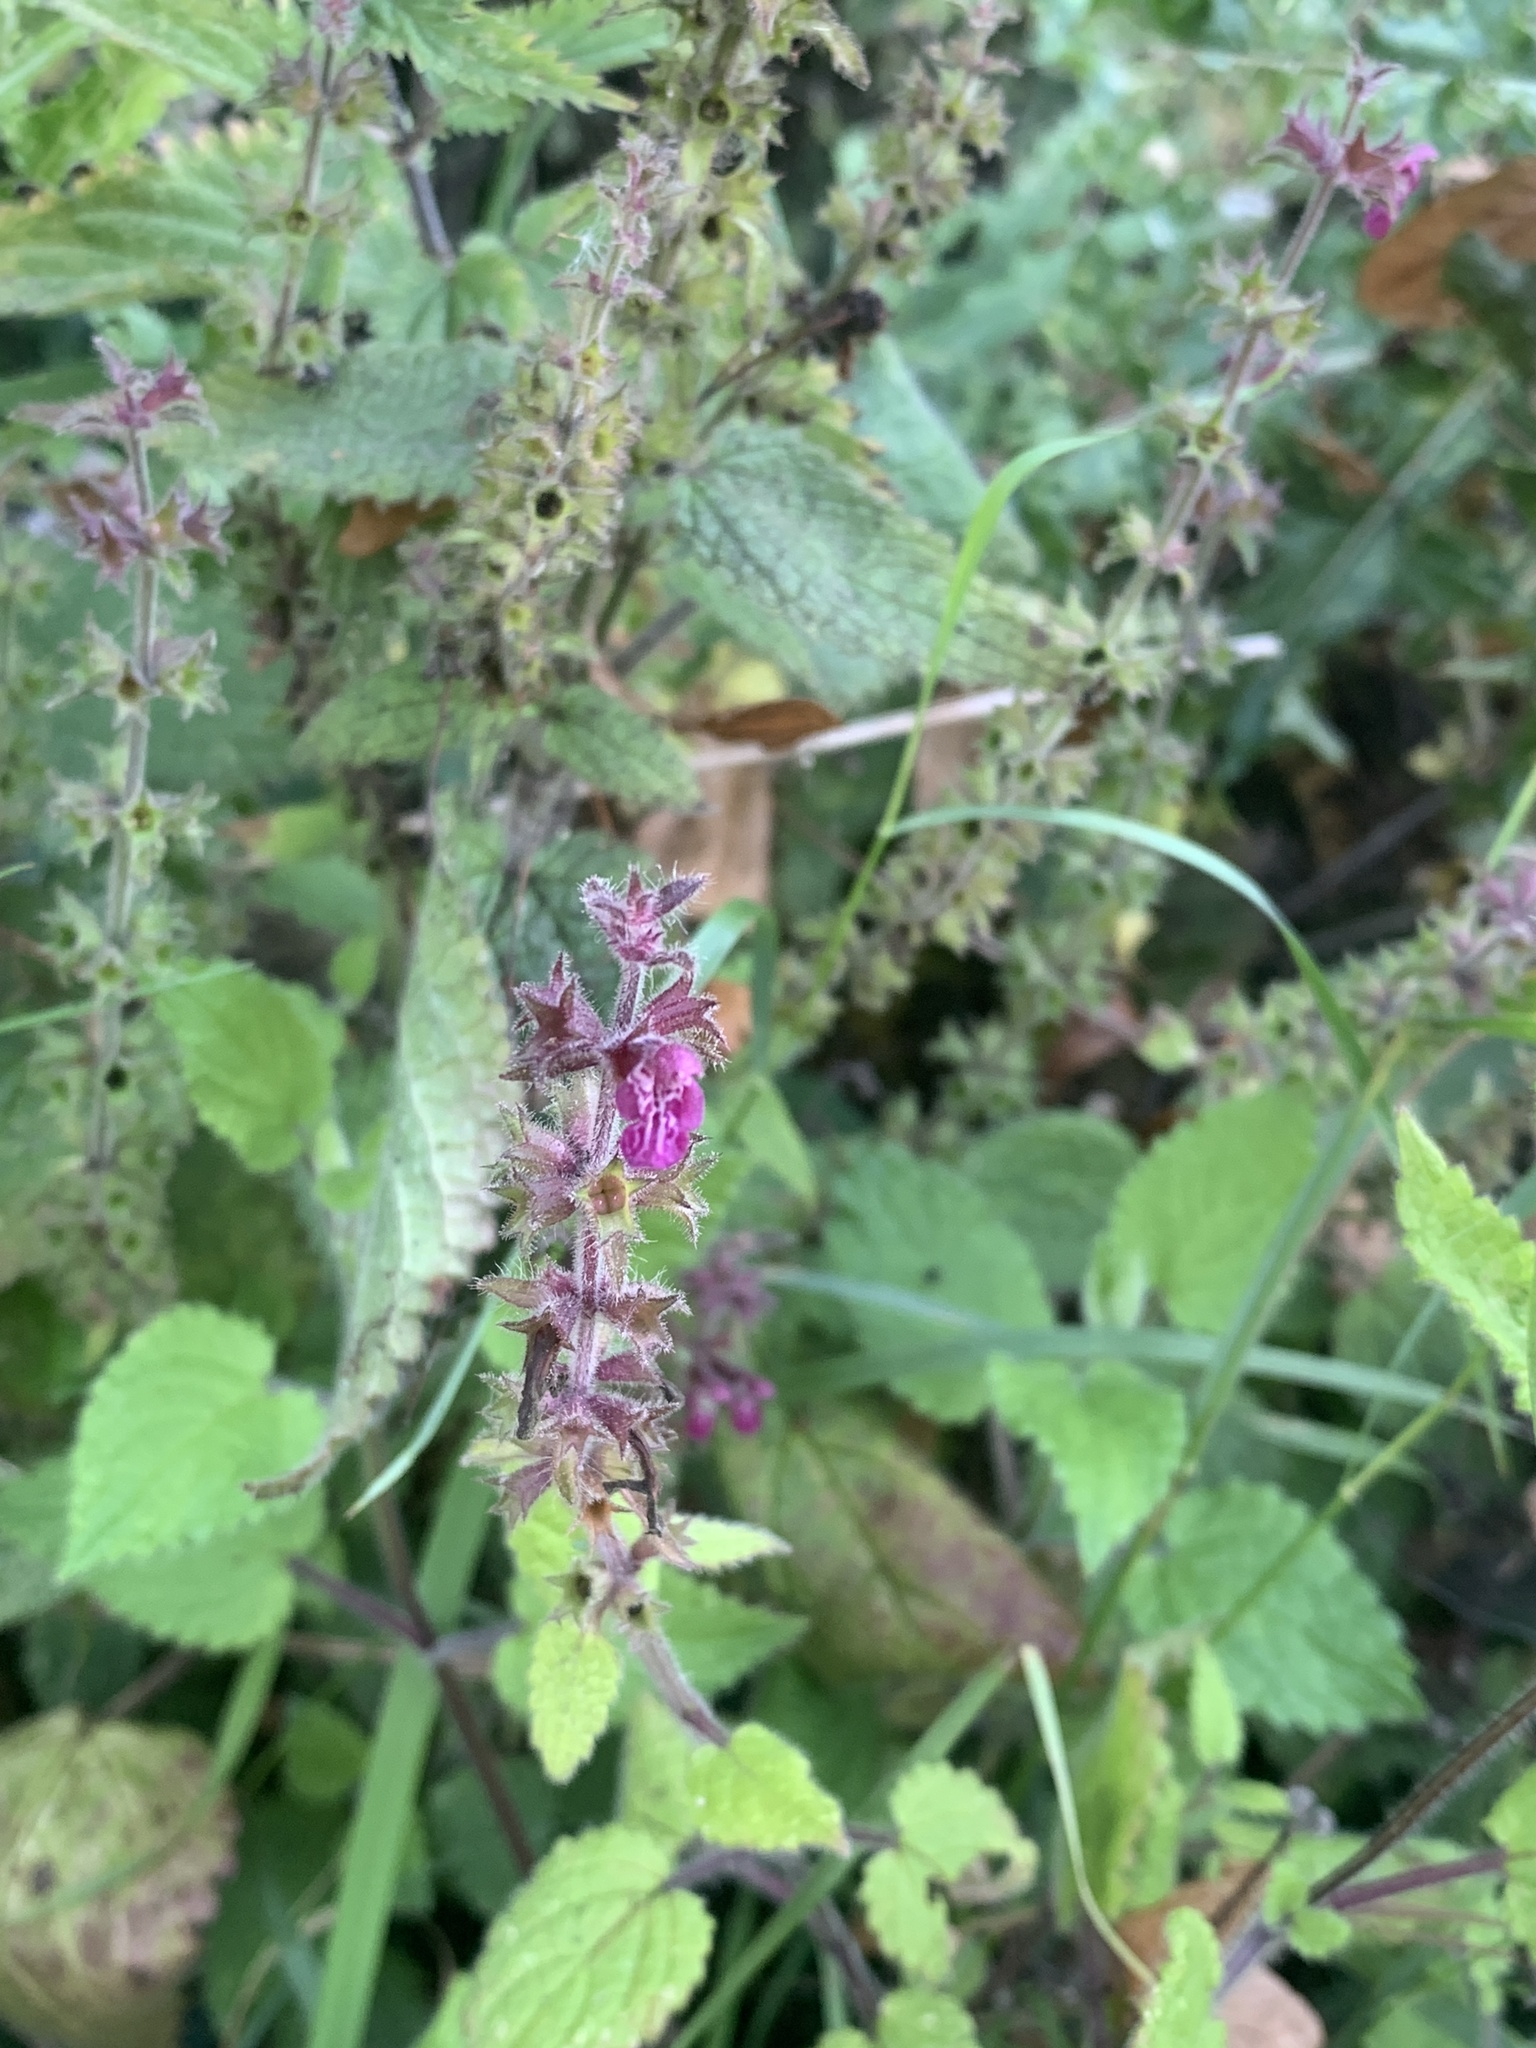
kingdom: Plantae
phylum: Tracheophyta
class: Magnoliopsida
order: Lamiales
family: Lamiaceae
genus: Stachys
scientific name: Stachys sylvatica
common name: Hedge woundwort
